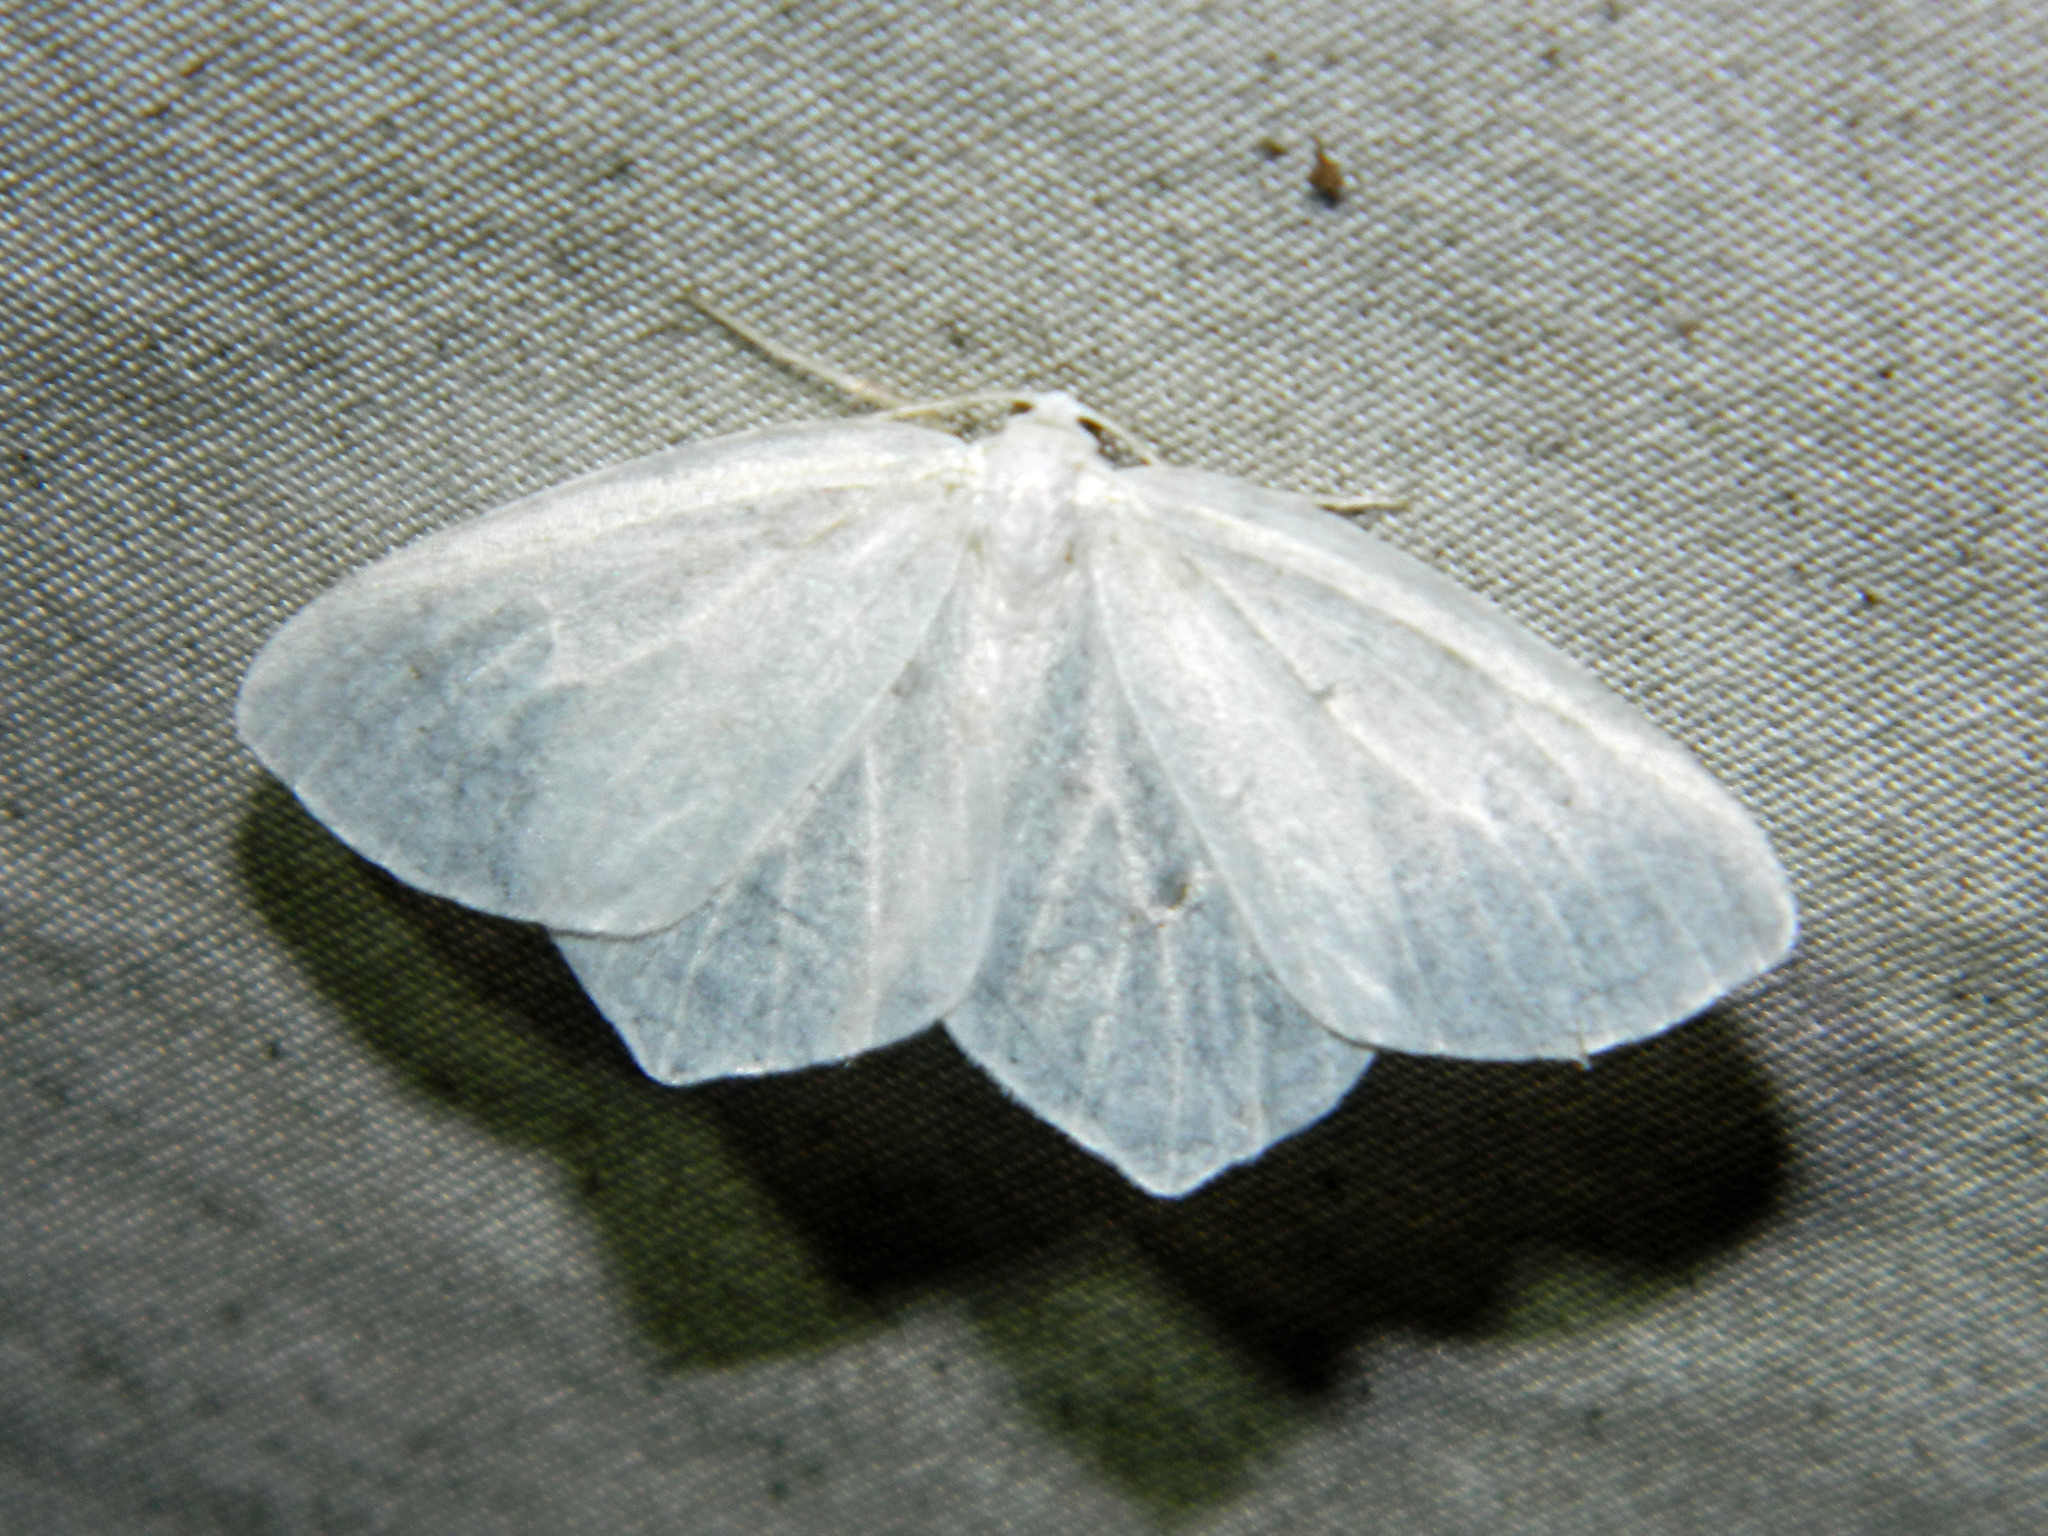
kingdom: Animalia
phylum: Arthropoda
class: Insecta
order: Lepidoptera
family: Geometridae
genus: Eugonobapta
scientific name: Eugonobapta nivosaria
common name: Snowy geometer
